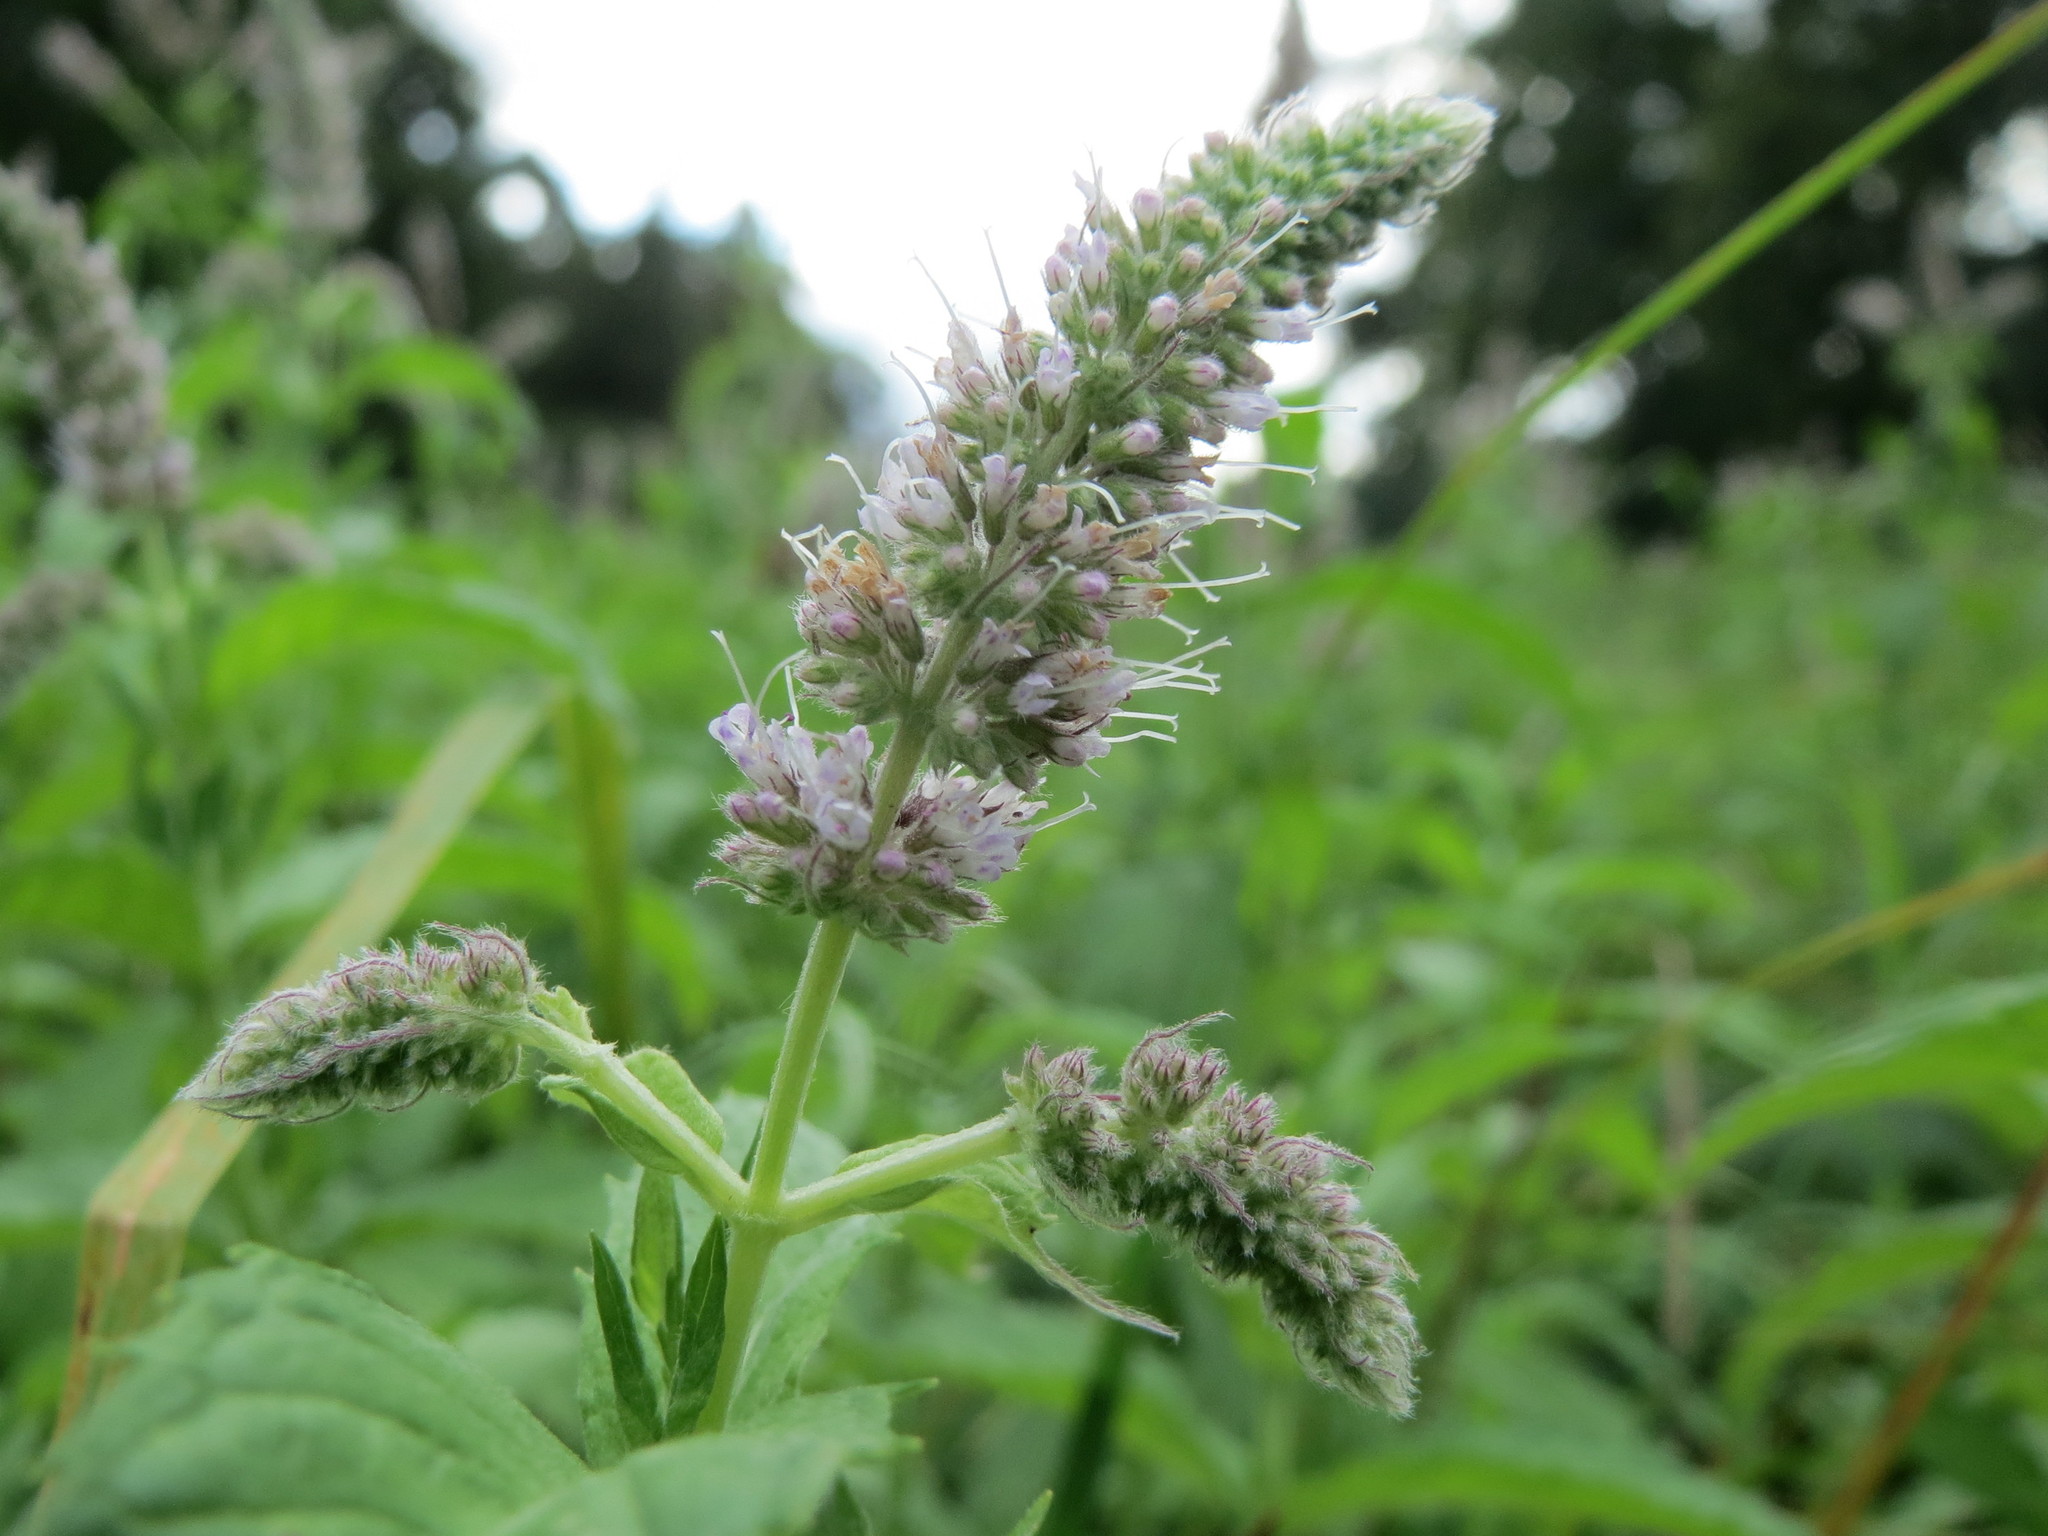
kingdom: Plantae
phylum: Tracheophyta
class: Magnoliopsida
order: Lamiales
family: Lamiaceae
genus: Mentha
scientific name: Mentha longifolia
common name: Horse mint
